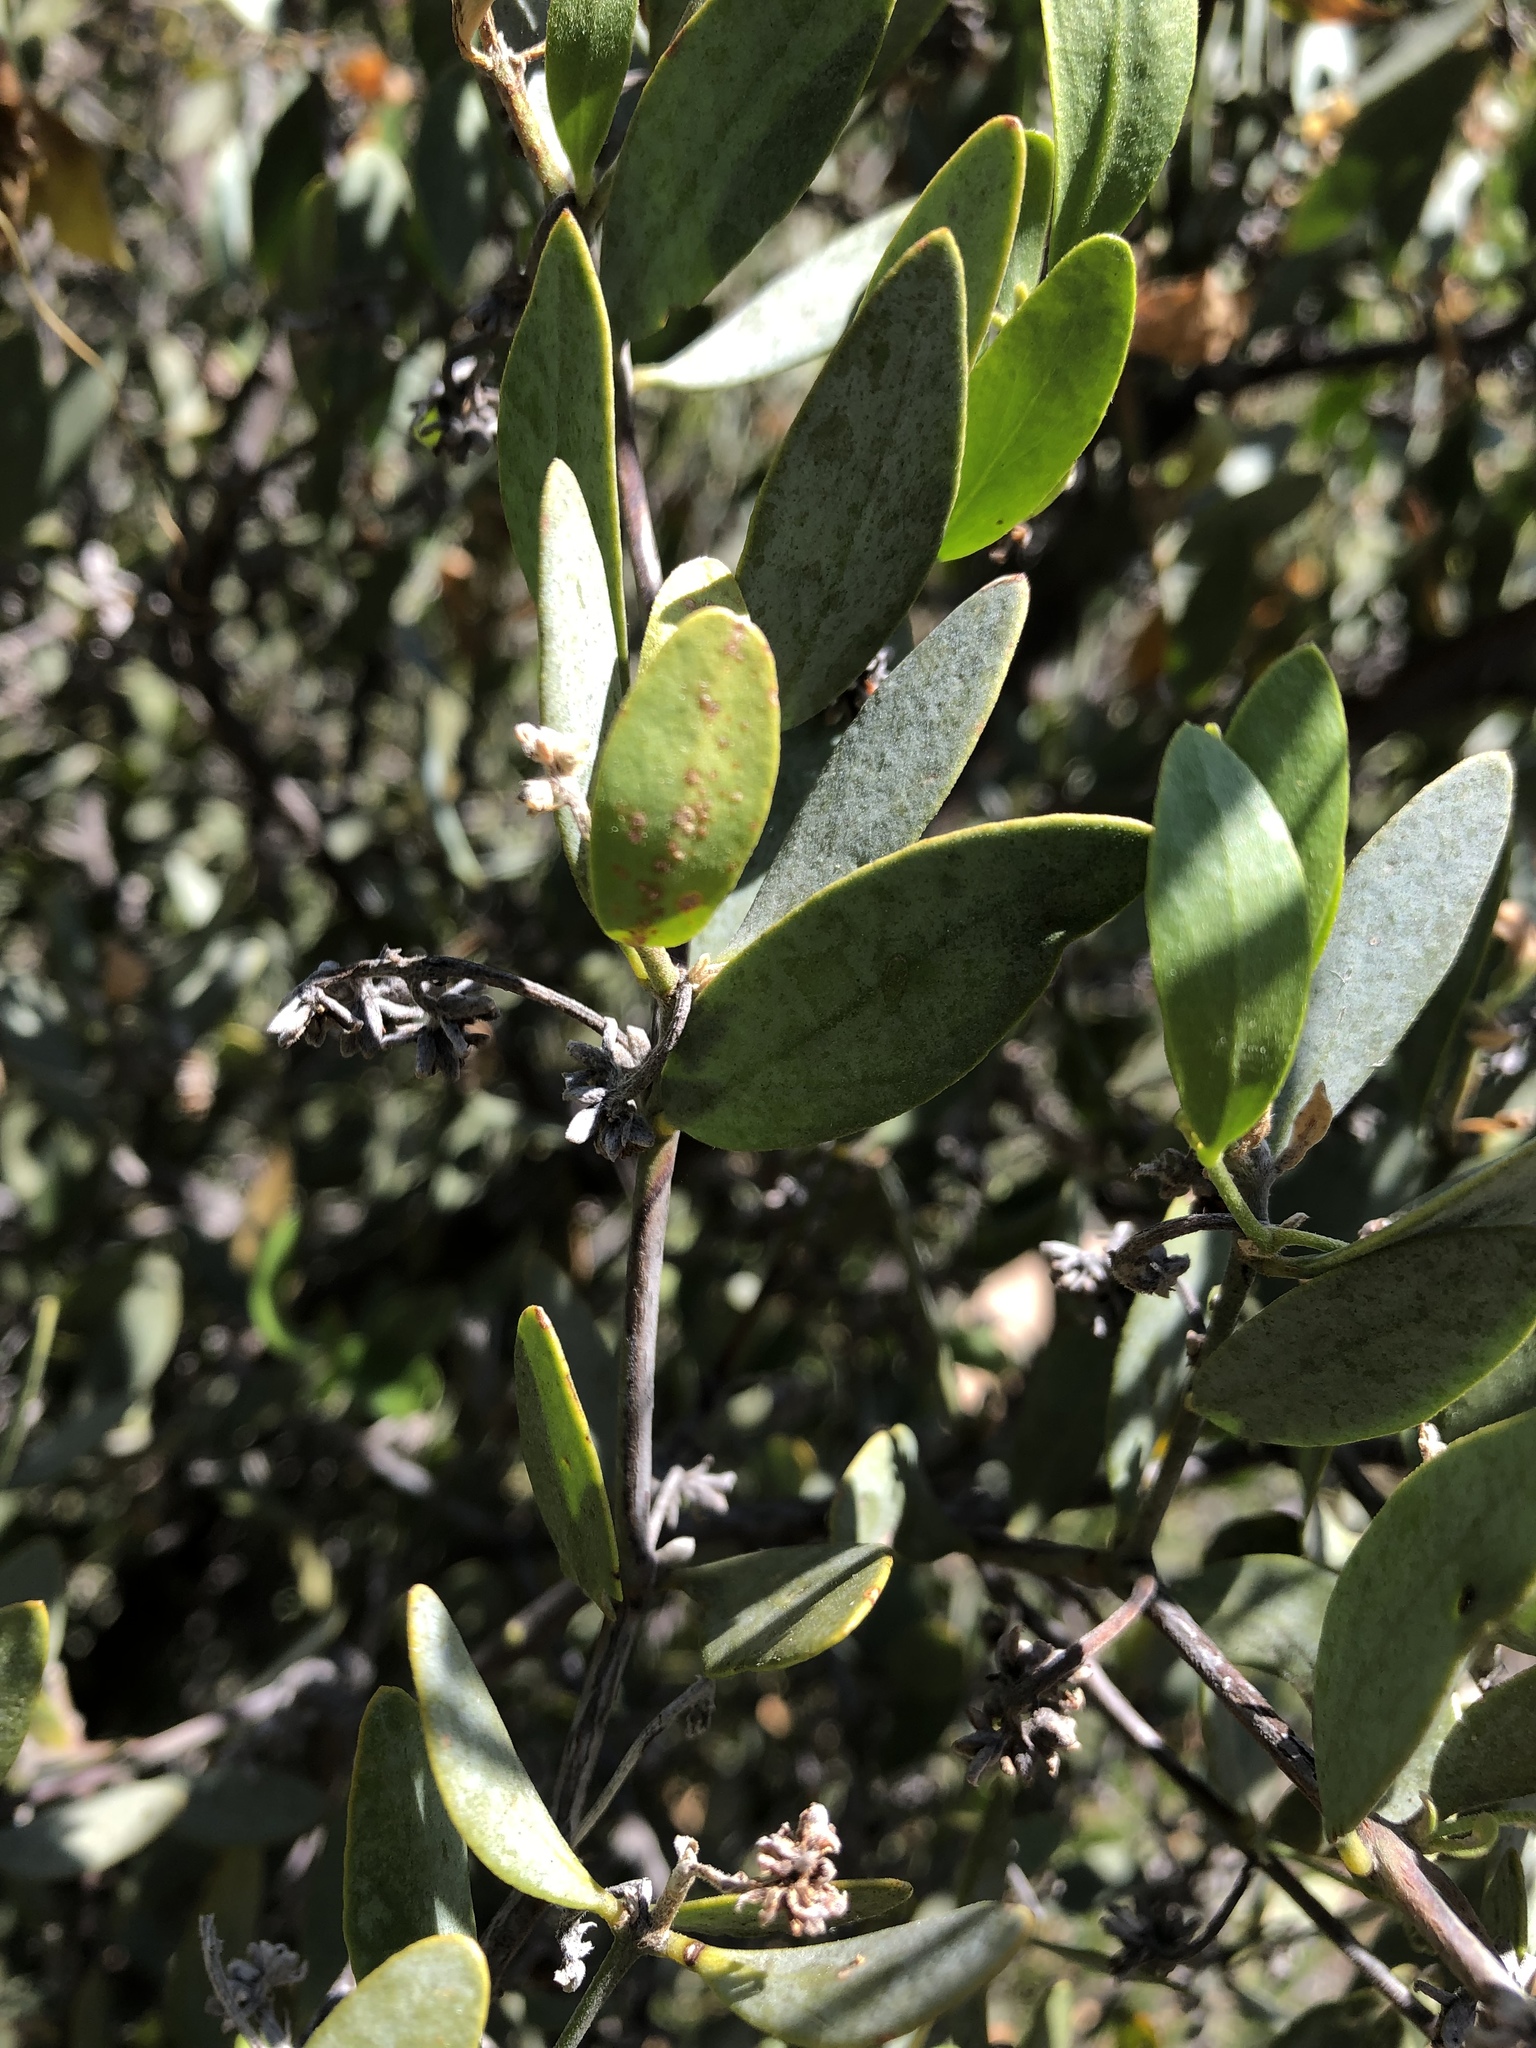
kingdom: Plantae
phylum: Tracheophyta
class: Magnoliopsida
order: Caryophyllales
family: Simmondsiaceae
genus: Simmondsia
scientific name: Simmondsia chinensis
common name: Jojoba
